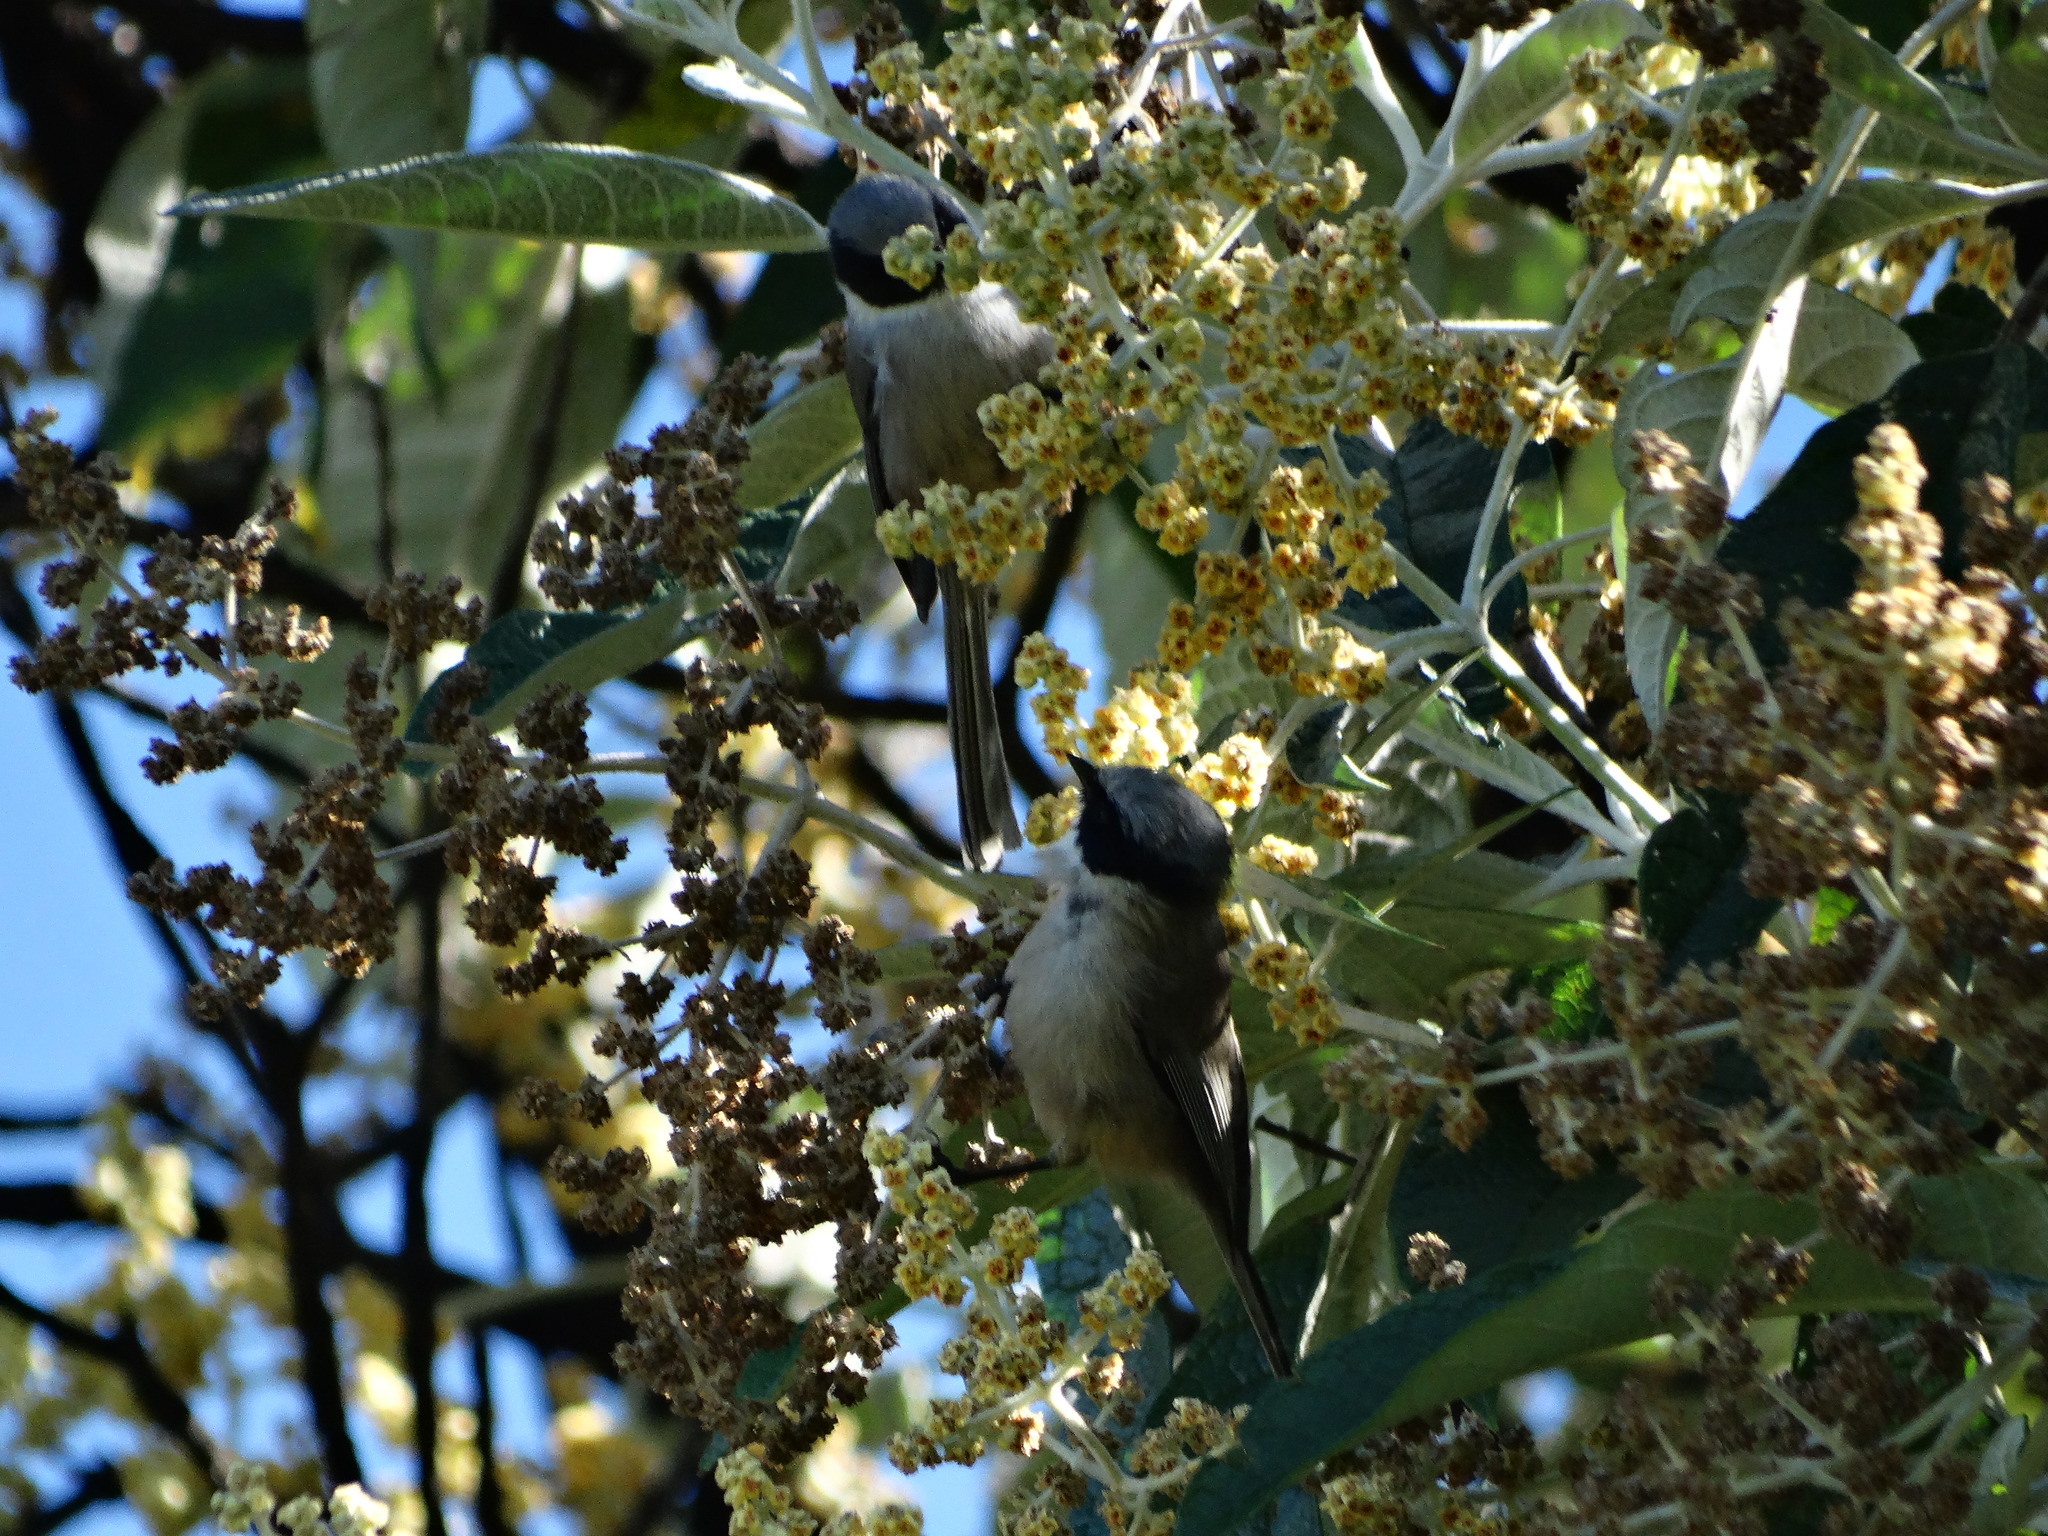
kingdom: Animalia
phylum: Chordata
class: Aves
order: Passeriformes
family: Aegithalidae
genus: Psaltriparus
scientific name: Psaltriparus minimus
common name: American bushtit
